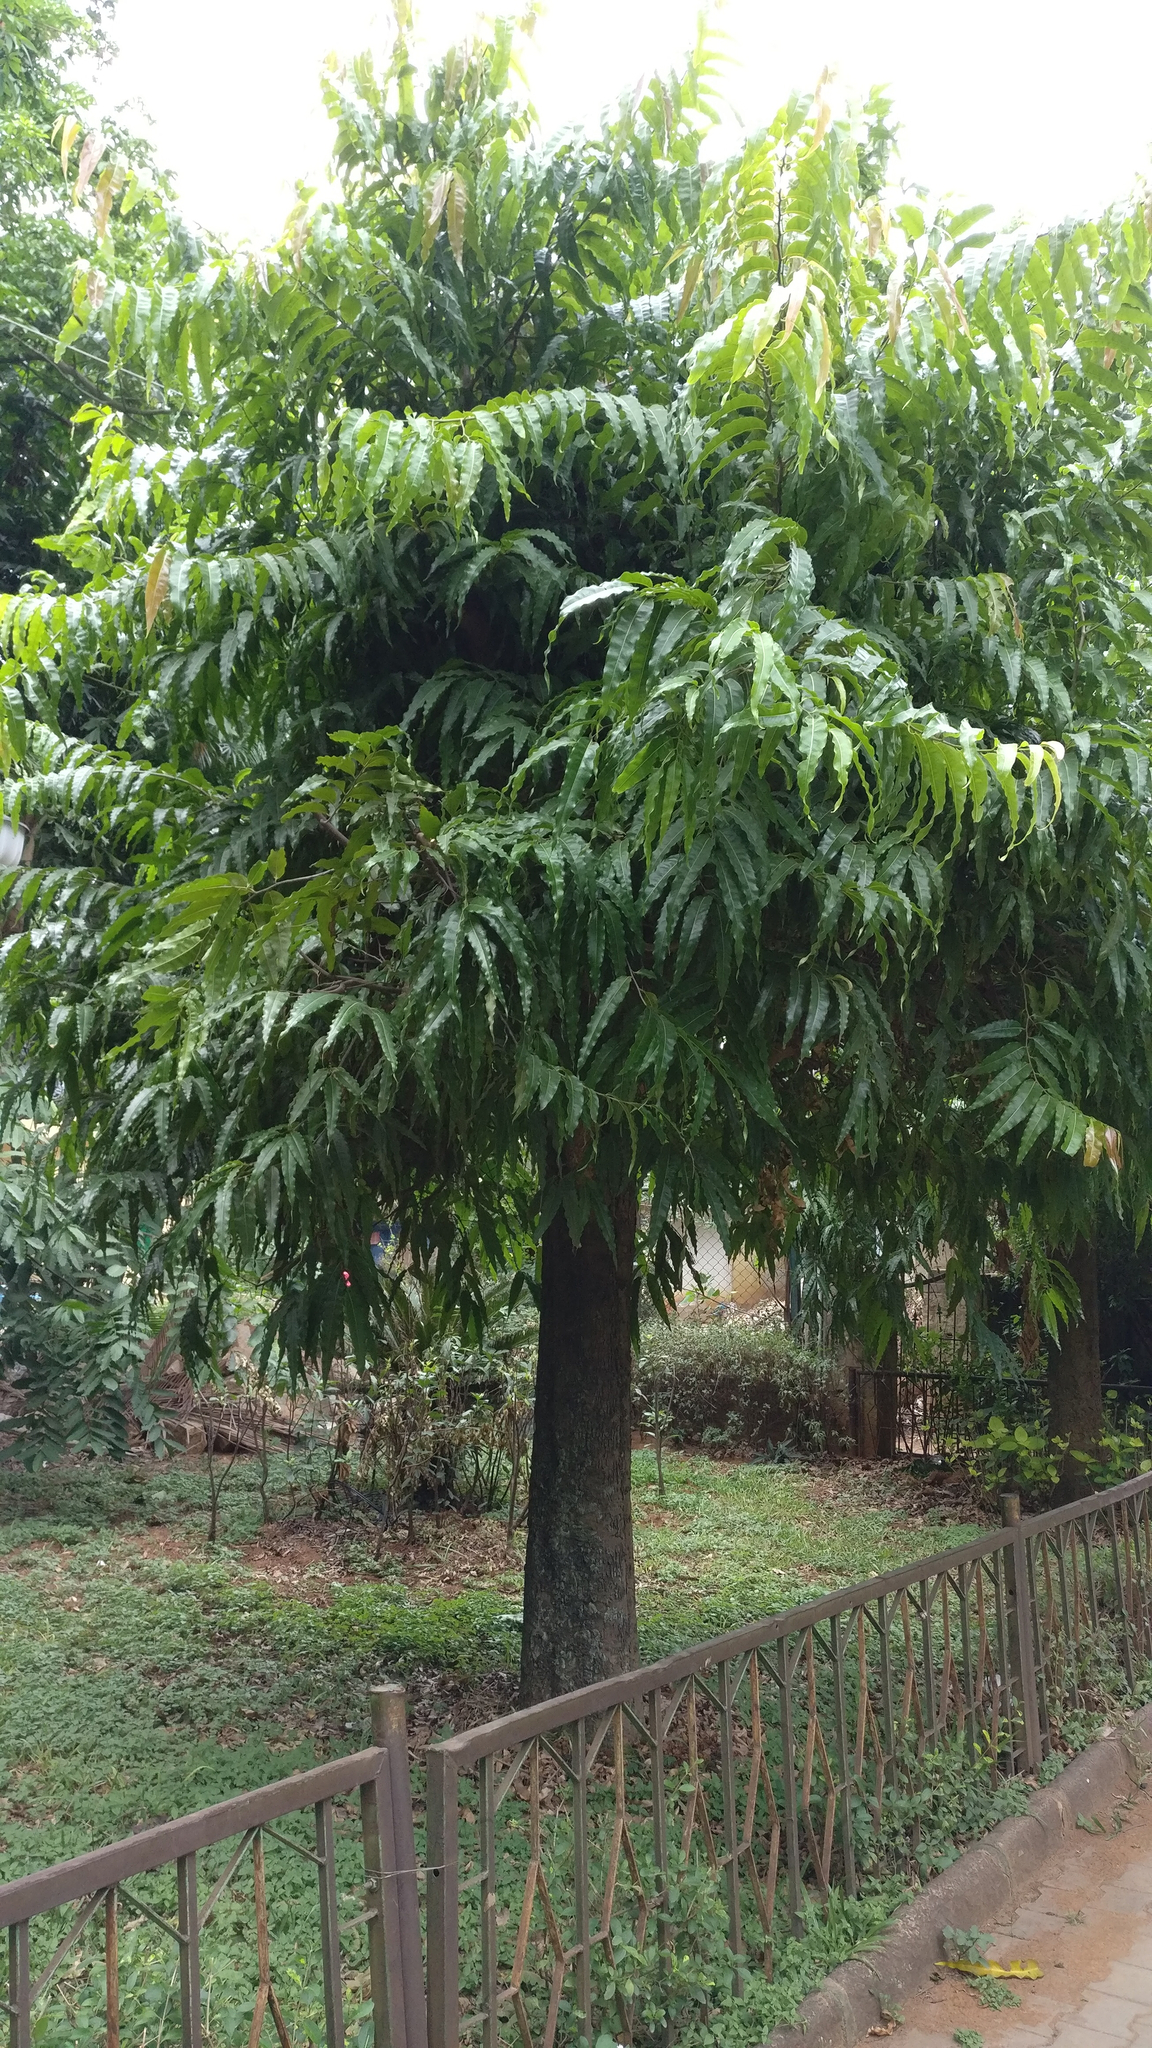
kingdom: Plantae
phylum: Tracheophyta
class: Magnoliopsida
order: Magnoliales
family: Annonaceae
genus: Polyalthia
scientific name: Polyalthia longifolia
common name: Cemetery-tree
